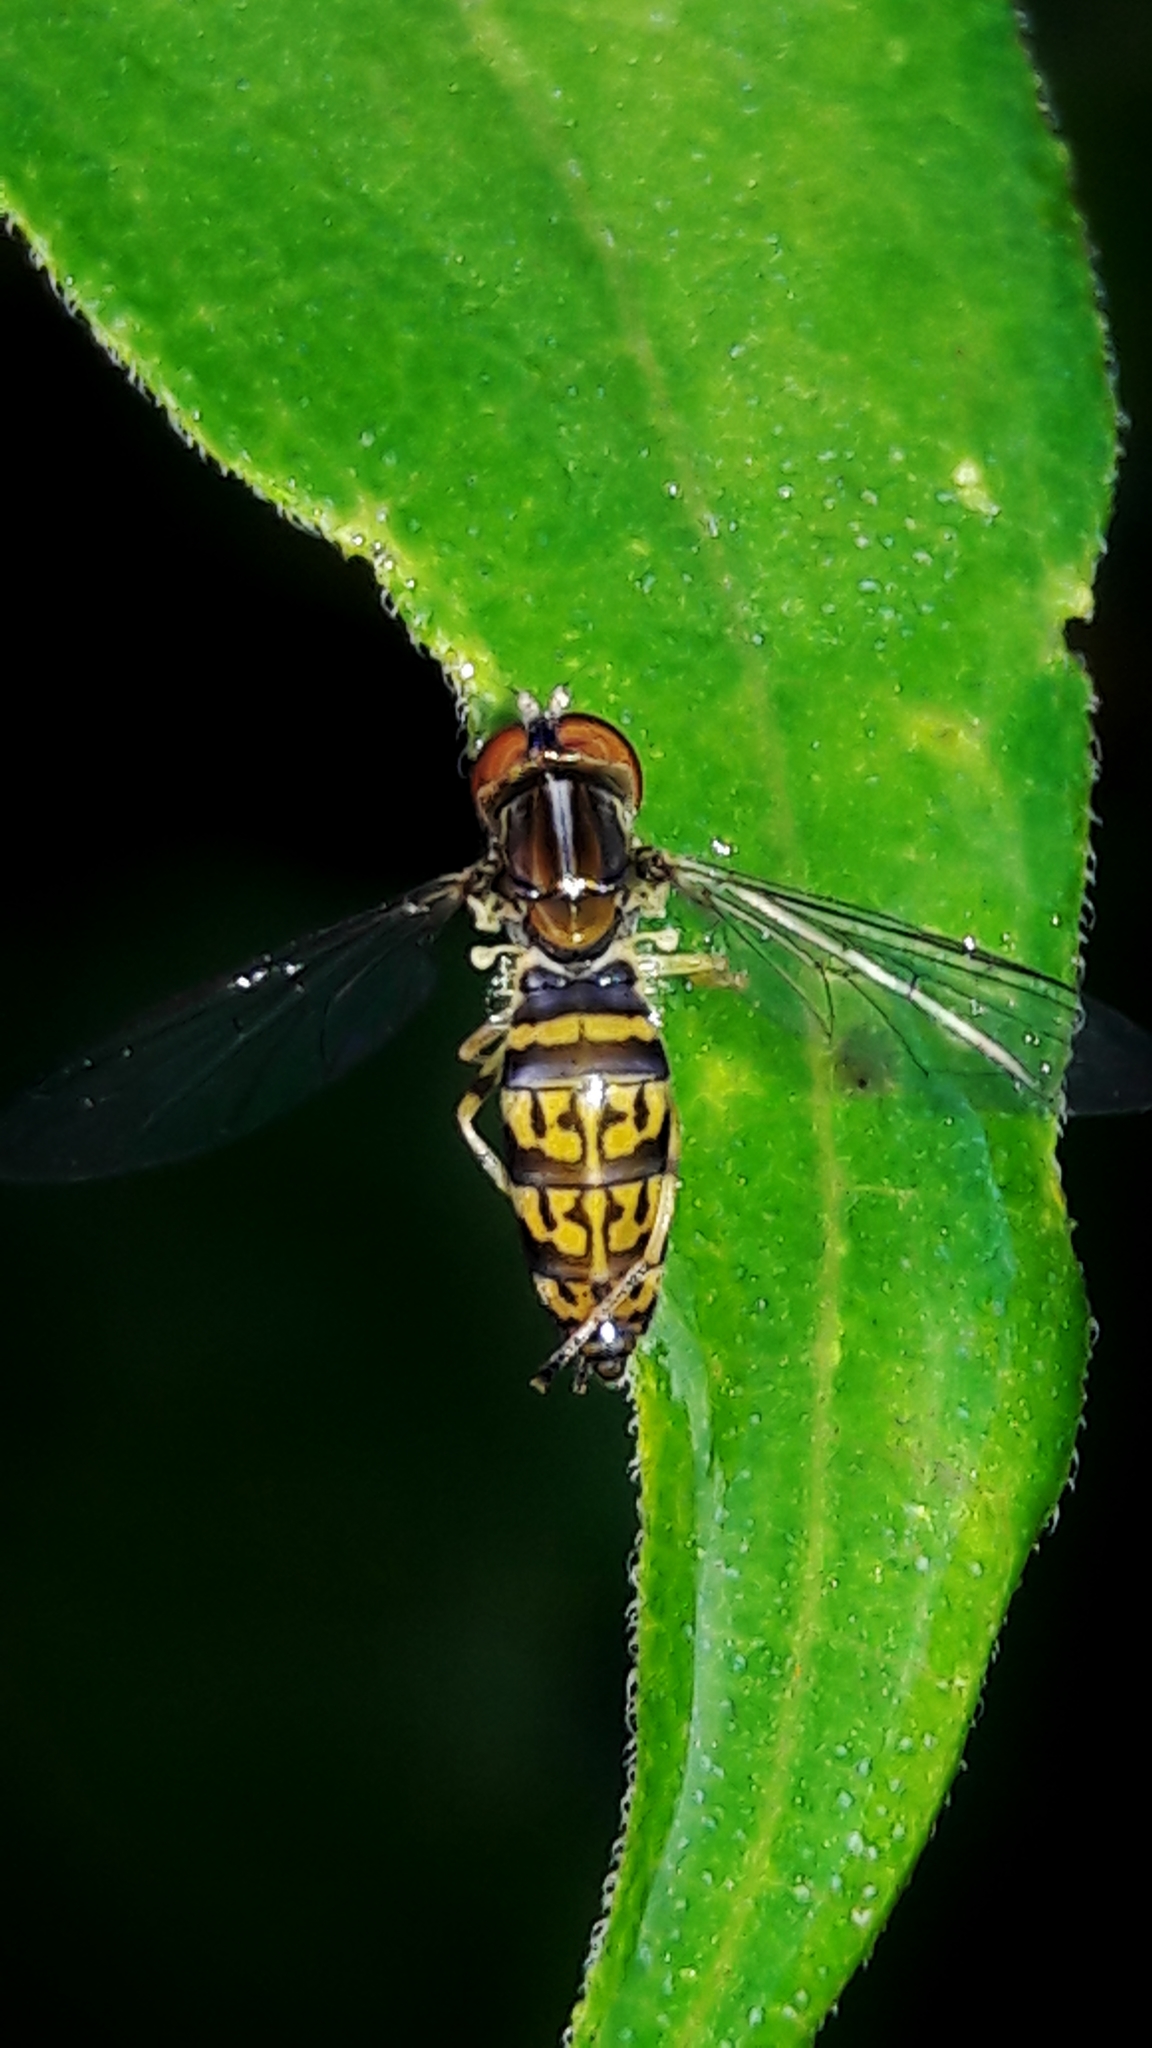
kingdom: Animalia
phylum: Arthropoda
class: Insecta
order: Diptera
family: Syrphidae
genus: Toxomerus
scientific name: Toxomerus
